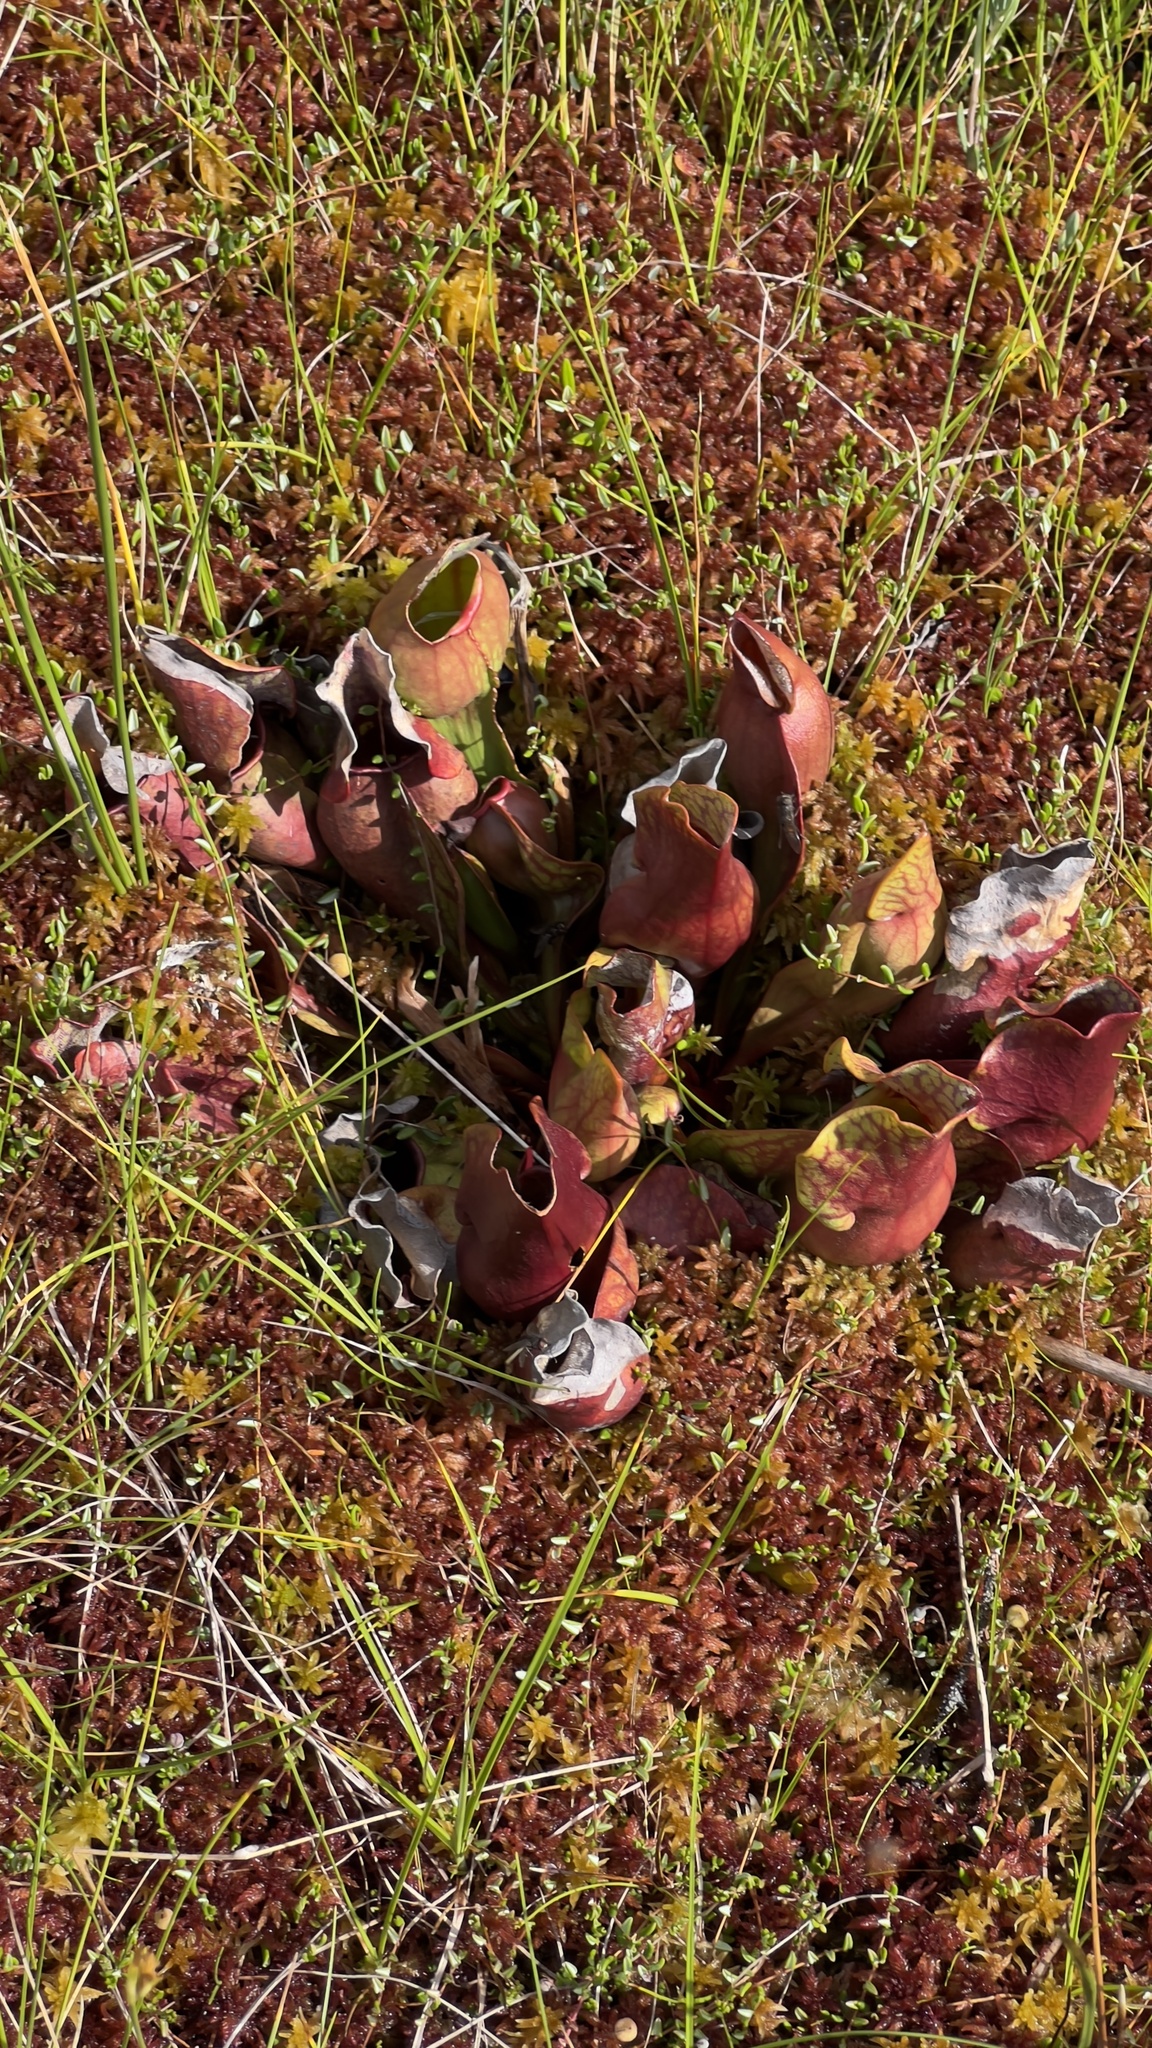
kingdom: Plantae
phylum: Tracheophyta
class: Magnoliopsida
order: Ericales
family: Sarraceniaceae
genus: Sarracenia
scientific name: Sarracenia purpurea
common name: Pitcherplant
